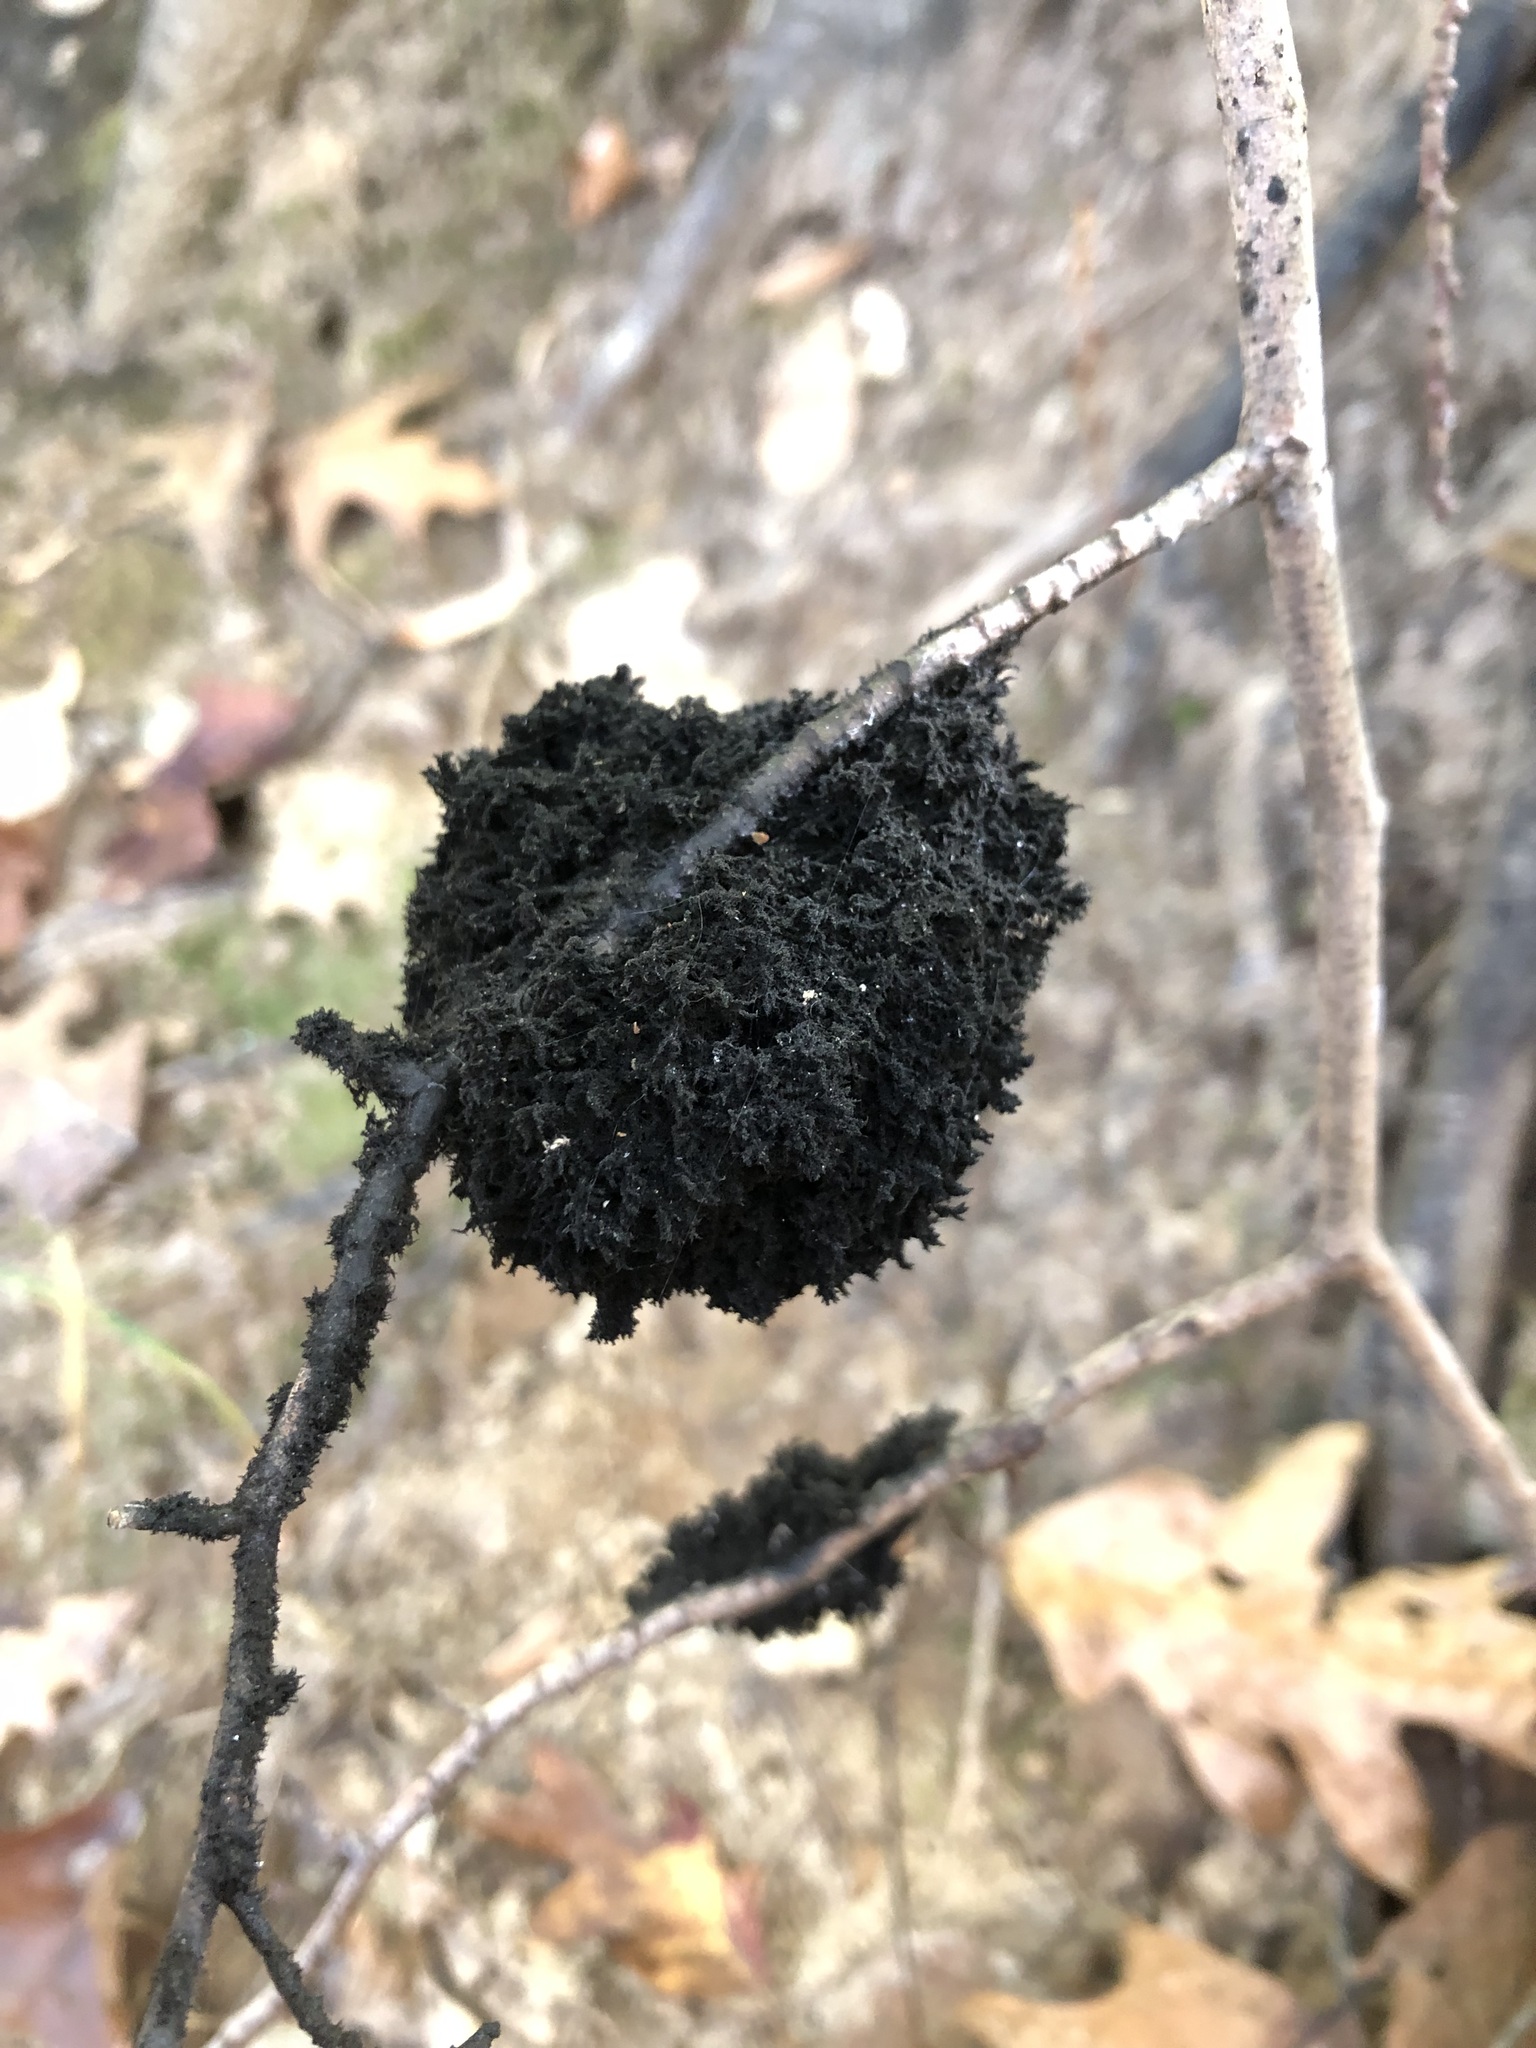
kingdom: Fungi
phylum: Ascomycota
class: Dothideomycetes
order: Capnodiales
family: Capnodiaceae
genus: Scorias
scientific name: Scorias spongiosa
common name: Black sooty mold
